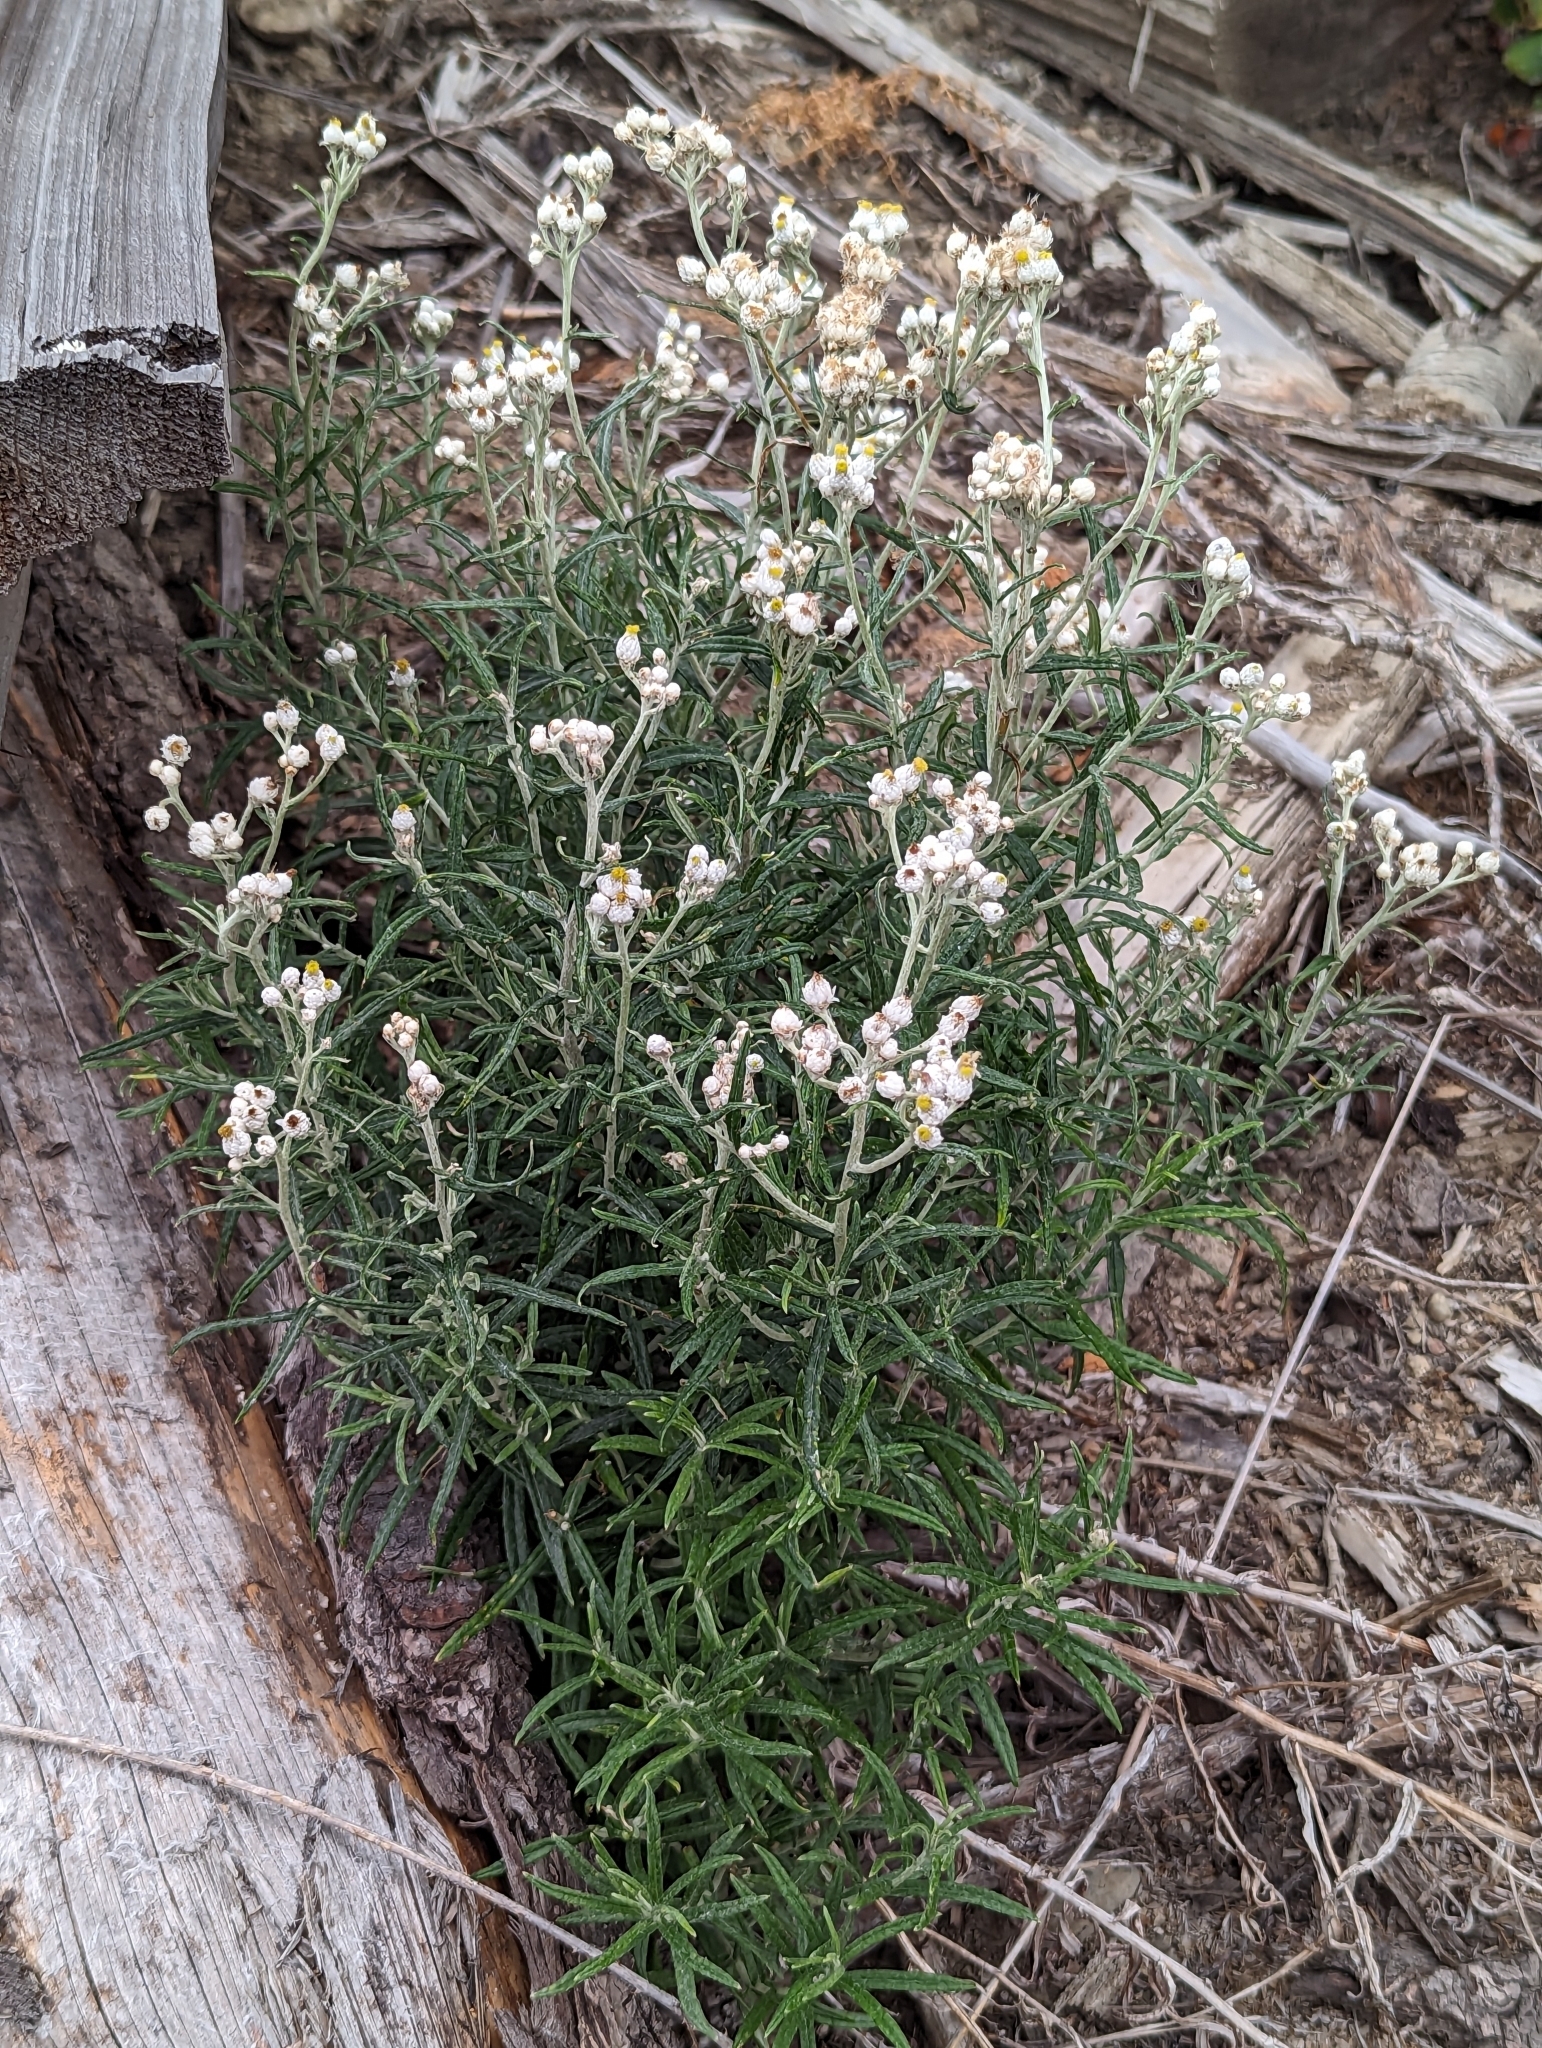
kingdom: Plantae
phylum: Tracheophyta
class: Magnoliopsida
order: Asterales
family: Asteraceae
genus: Anaphalis
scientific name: Anaphalis margaritacea
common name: Pearly everlasting
